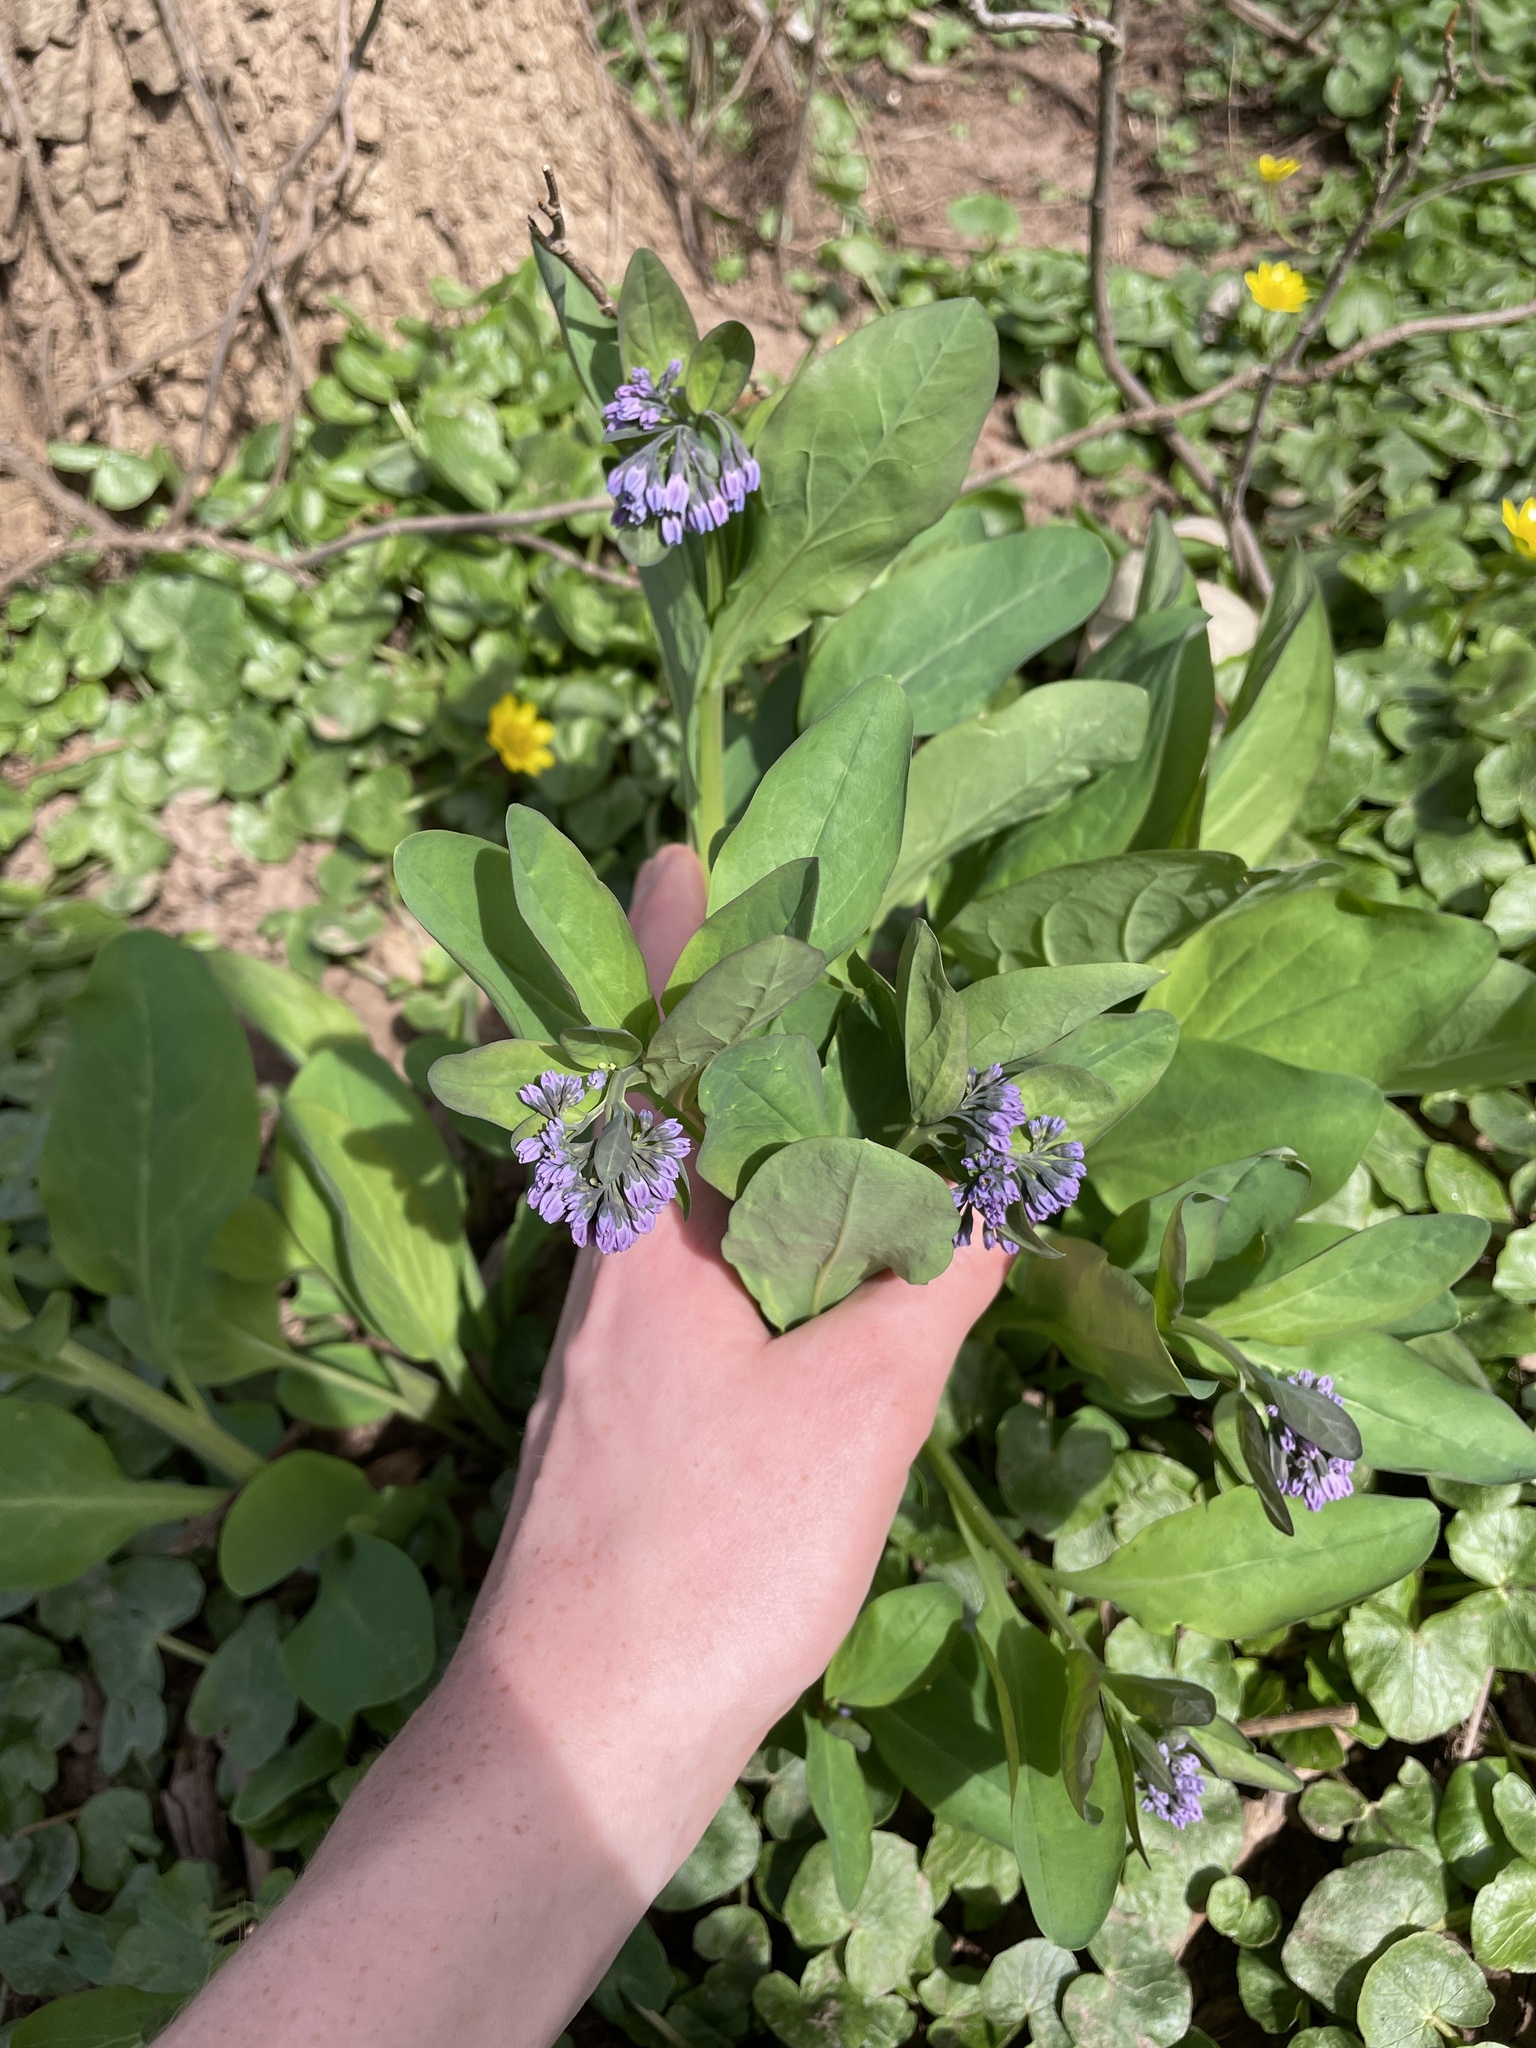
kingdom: Plantae
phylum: Tracheophyta
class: Magnoliopsida
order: Boraginales
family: Boraginaceae
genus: Mertensia
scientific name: Mertensia virginica
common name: Virginia bluebells
